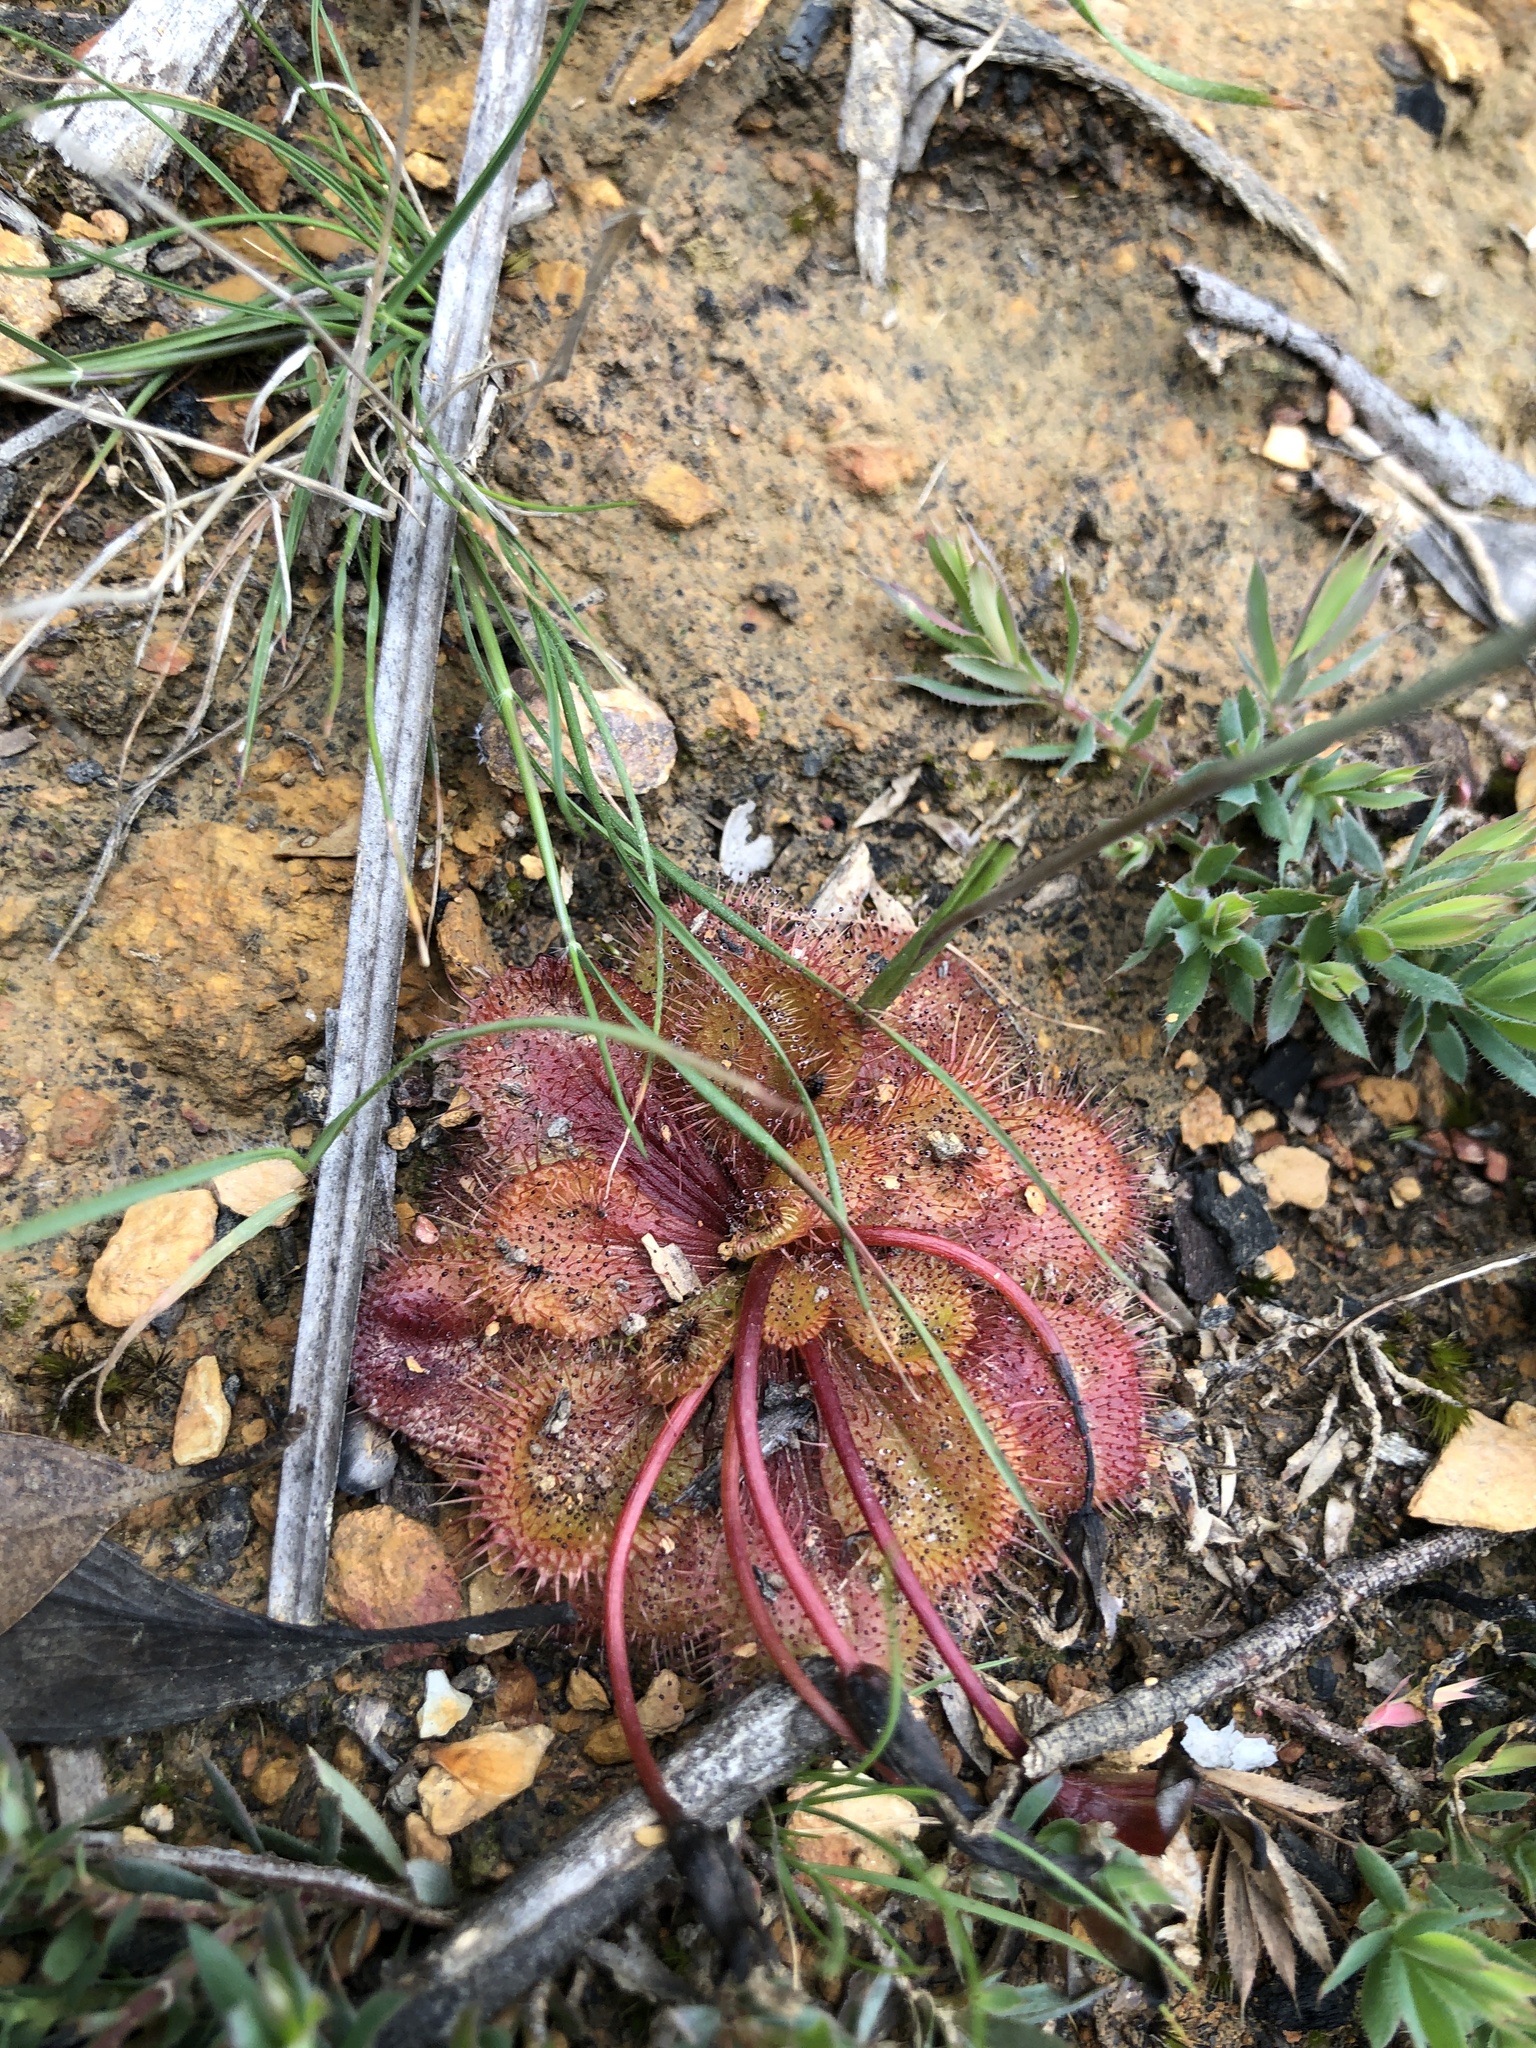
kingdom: Plantae
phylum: Tracheophyta
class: Magnoliopsida
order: Caryophyllales
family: Droseraceae
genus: Drosera
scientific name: Drosera whittakeri
